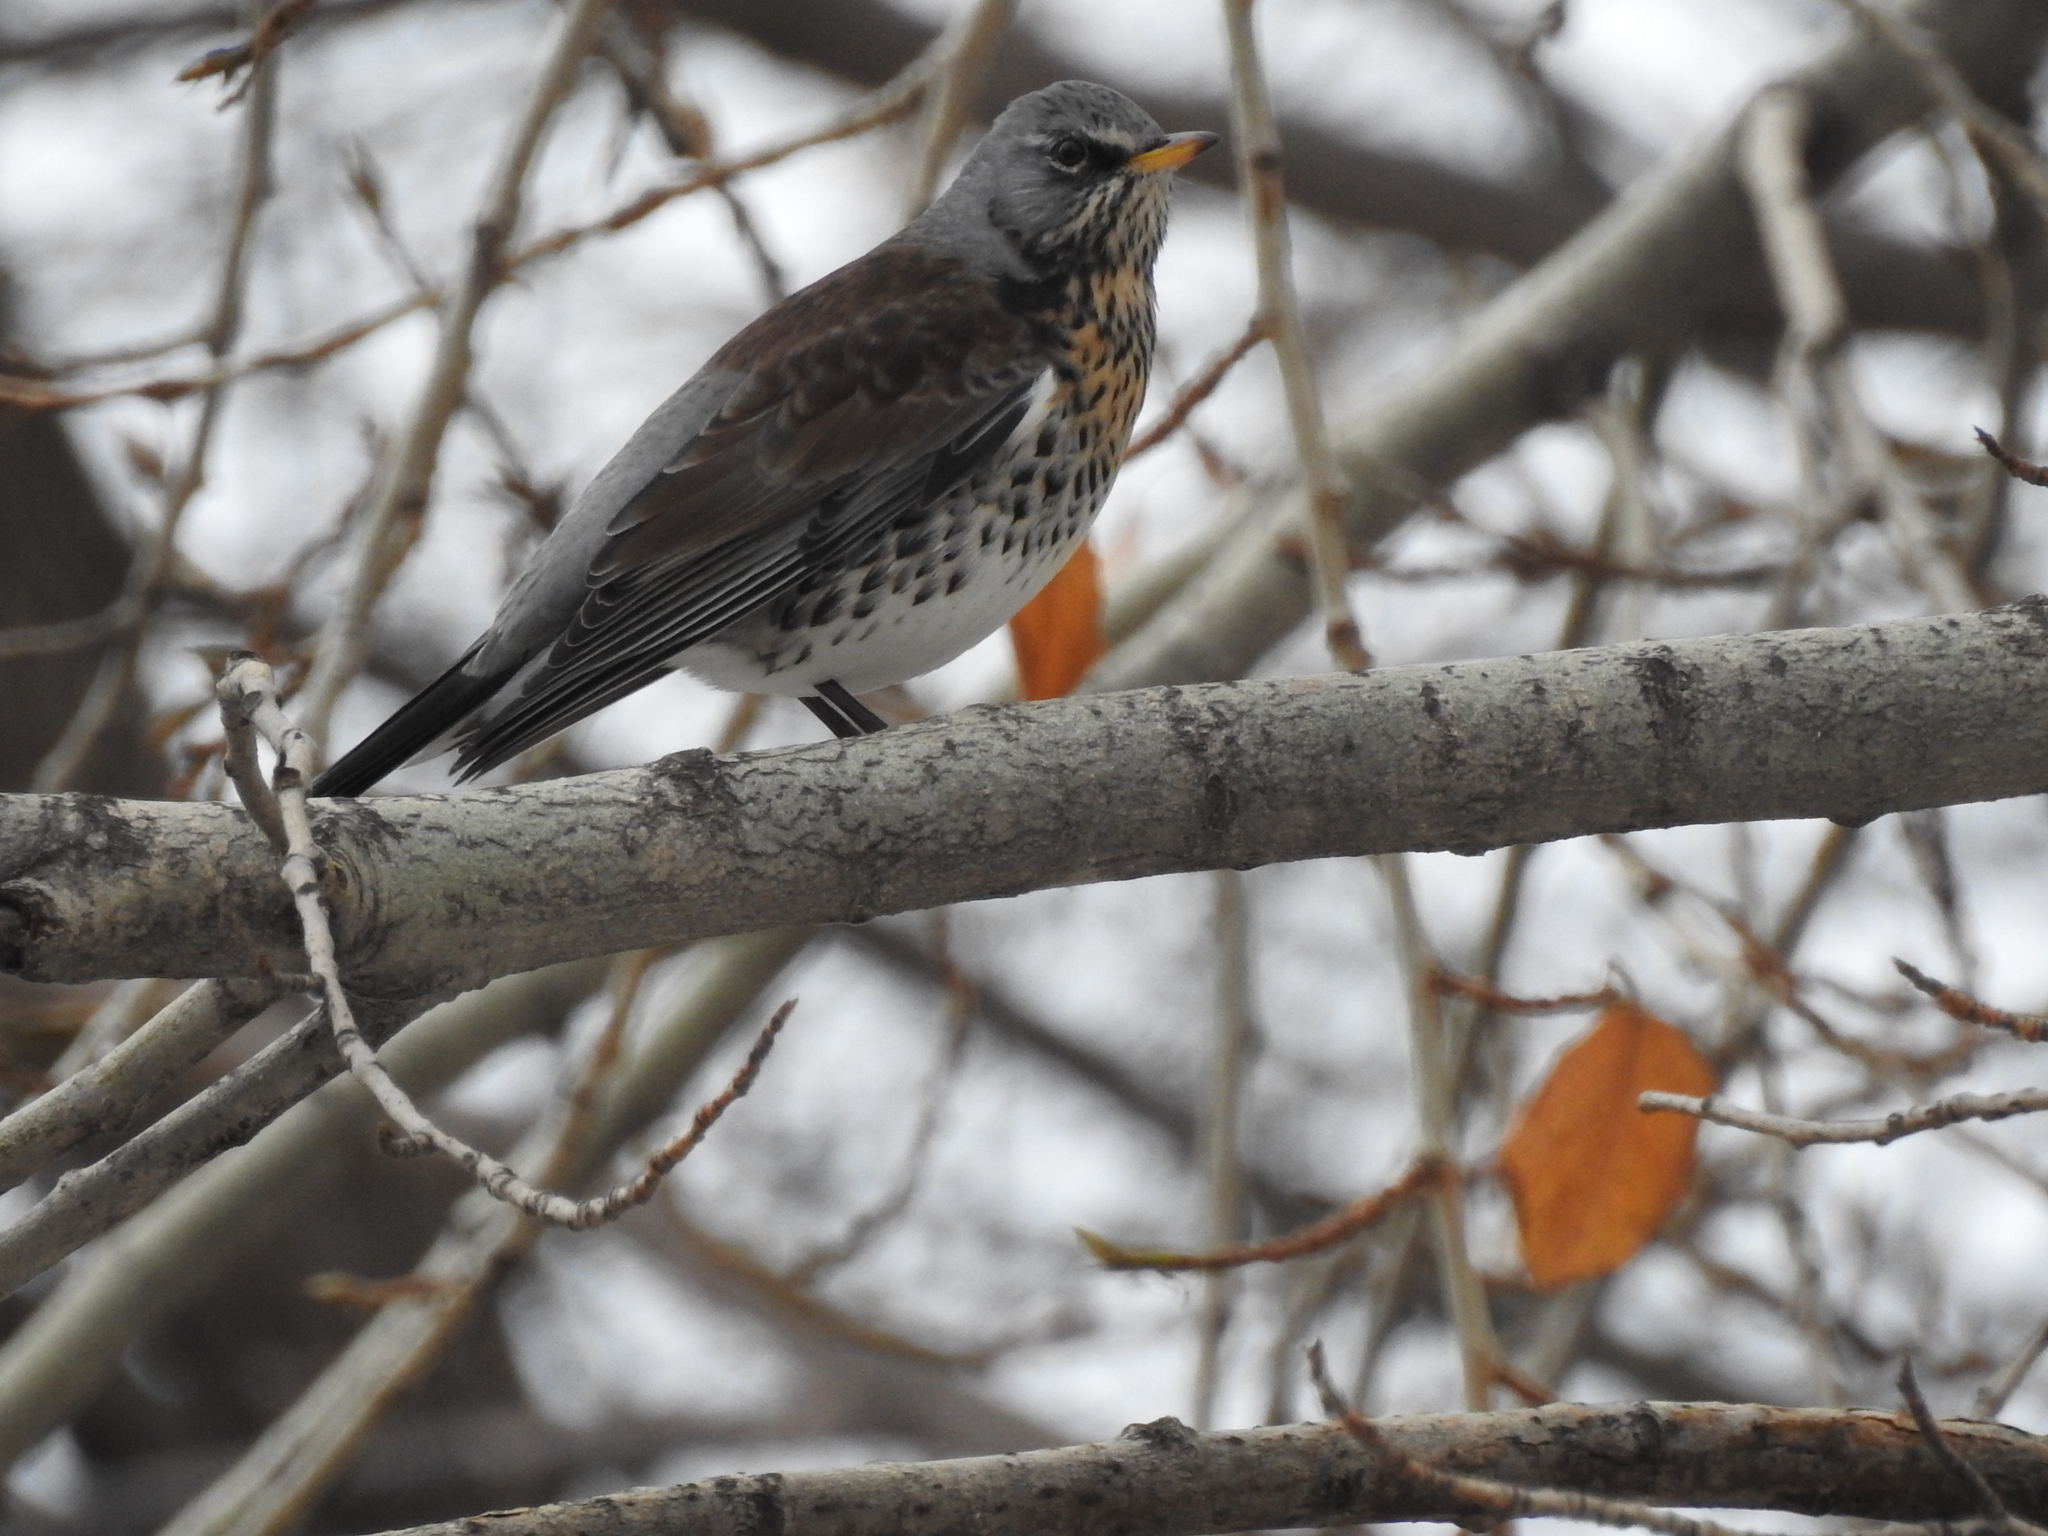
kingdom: Animalia
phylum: Chordata
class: Aves
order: Passeriformes
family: Turdidae
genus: Turdus
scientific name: Turdus pilaris
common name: Fieldfare
